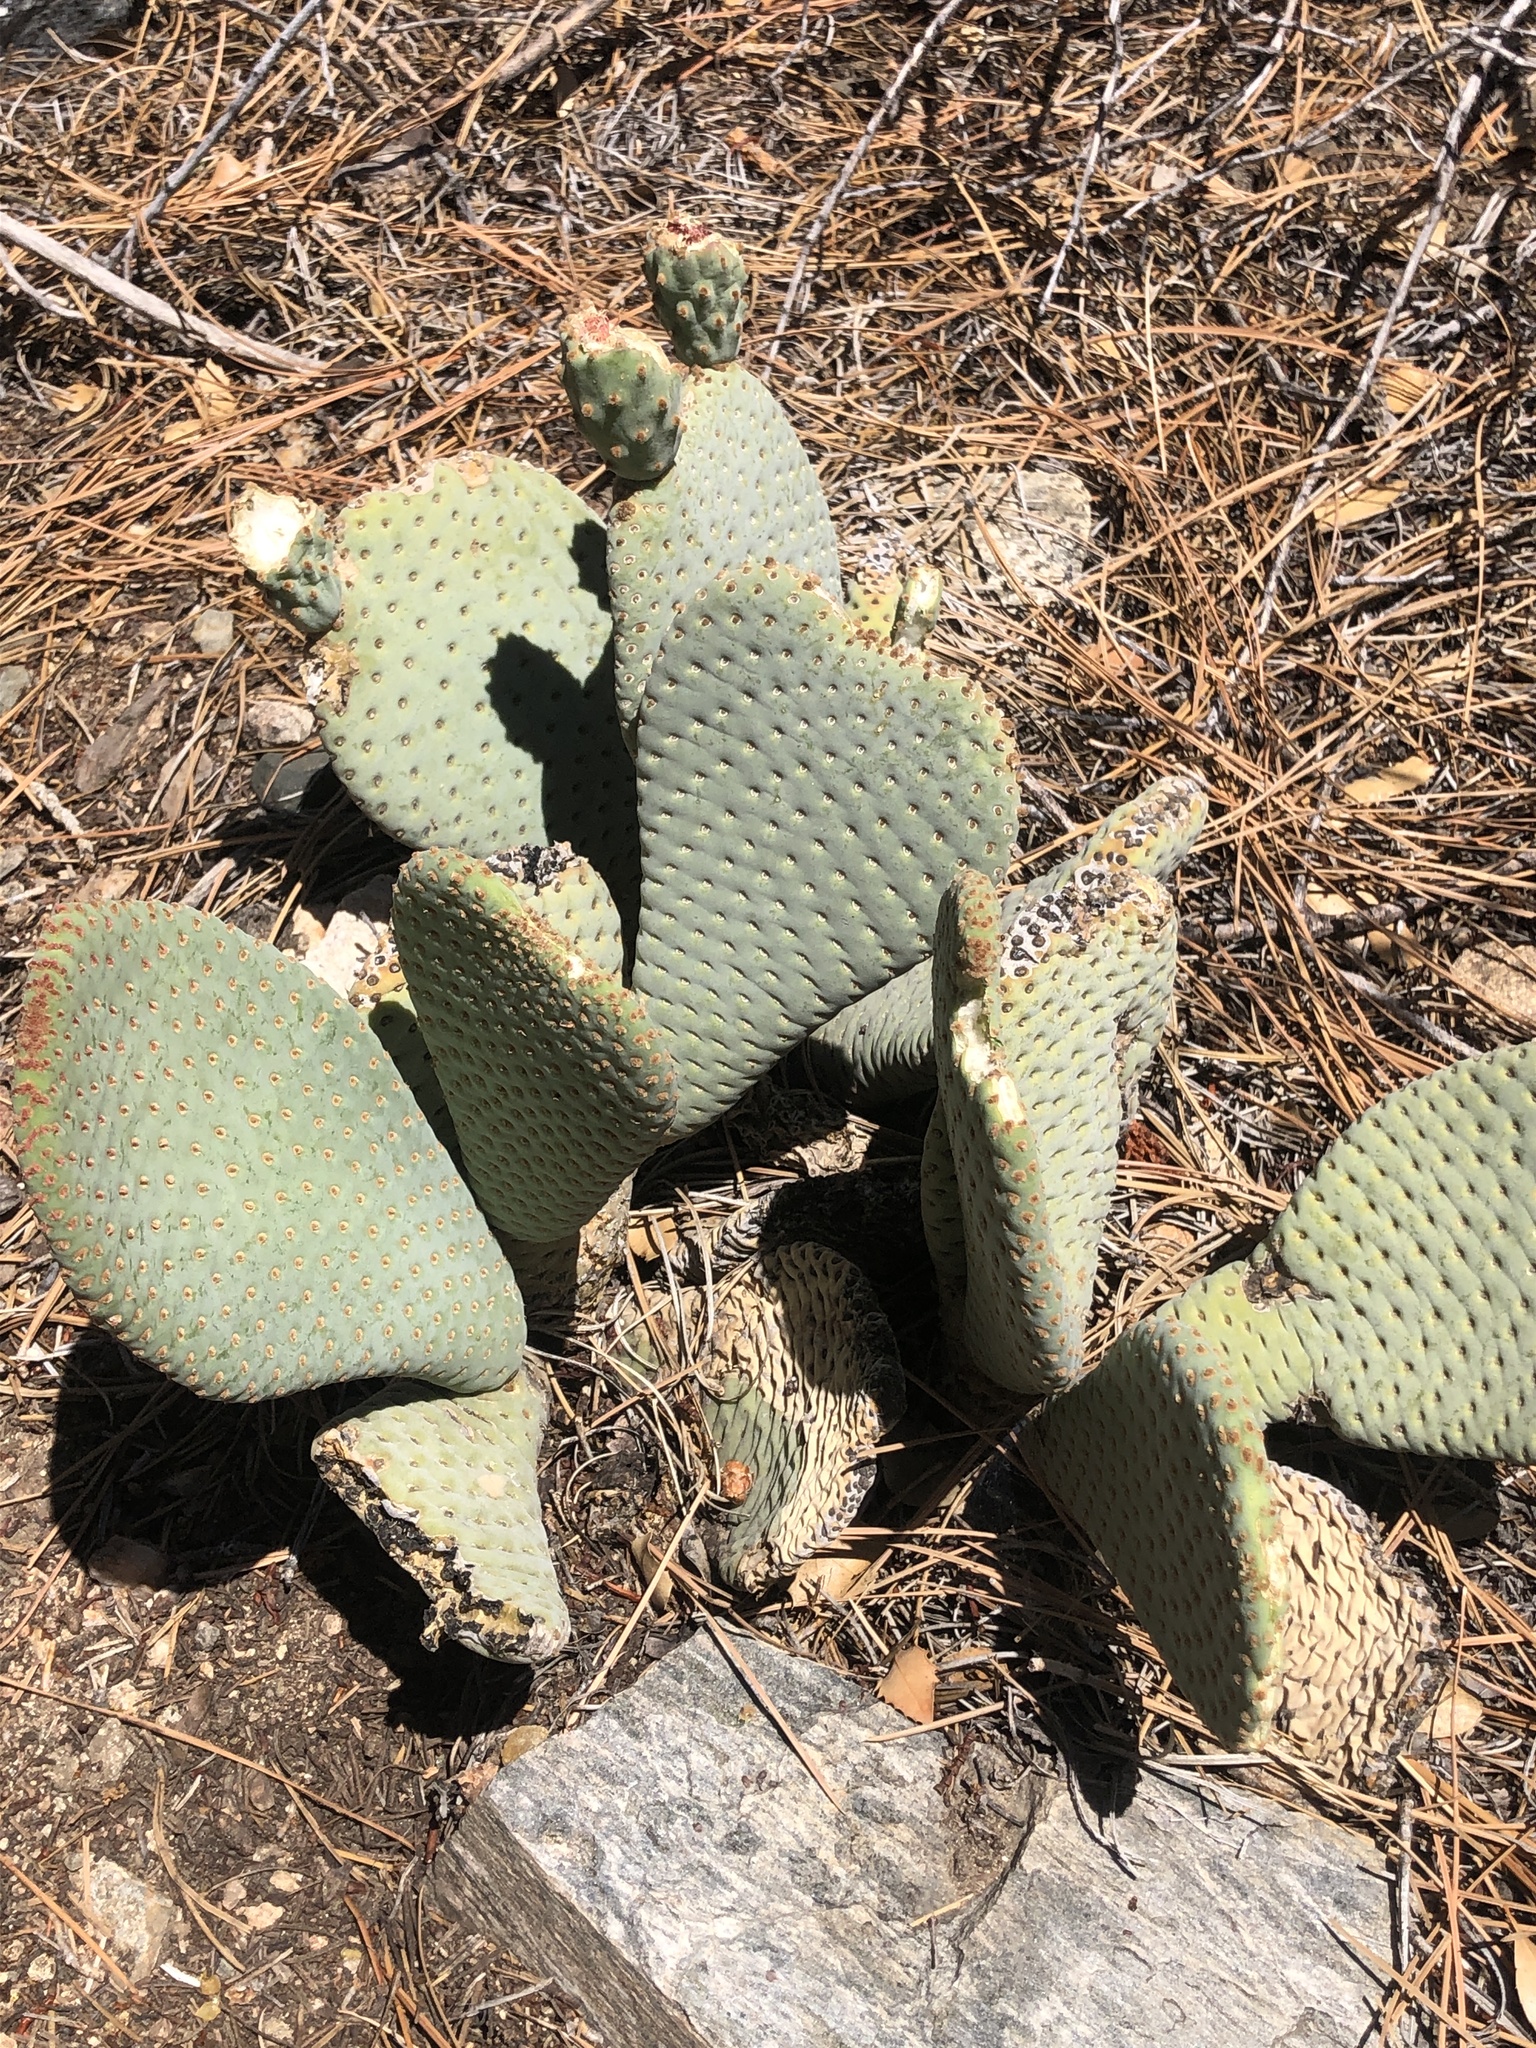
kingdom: Plantae
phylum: Tracheophyta
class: Magnoliopsida
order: Caryophyllales
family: Cactaceae
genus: Opuntia
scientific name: Opuntia basilaris
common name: Beavertail prickly-pear
